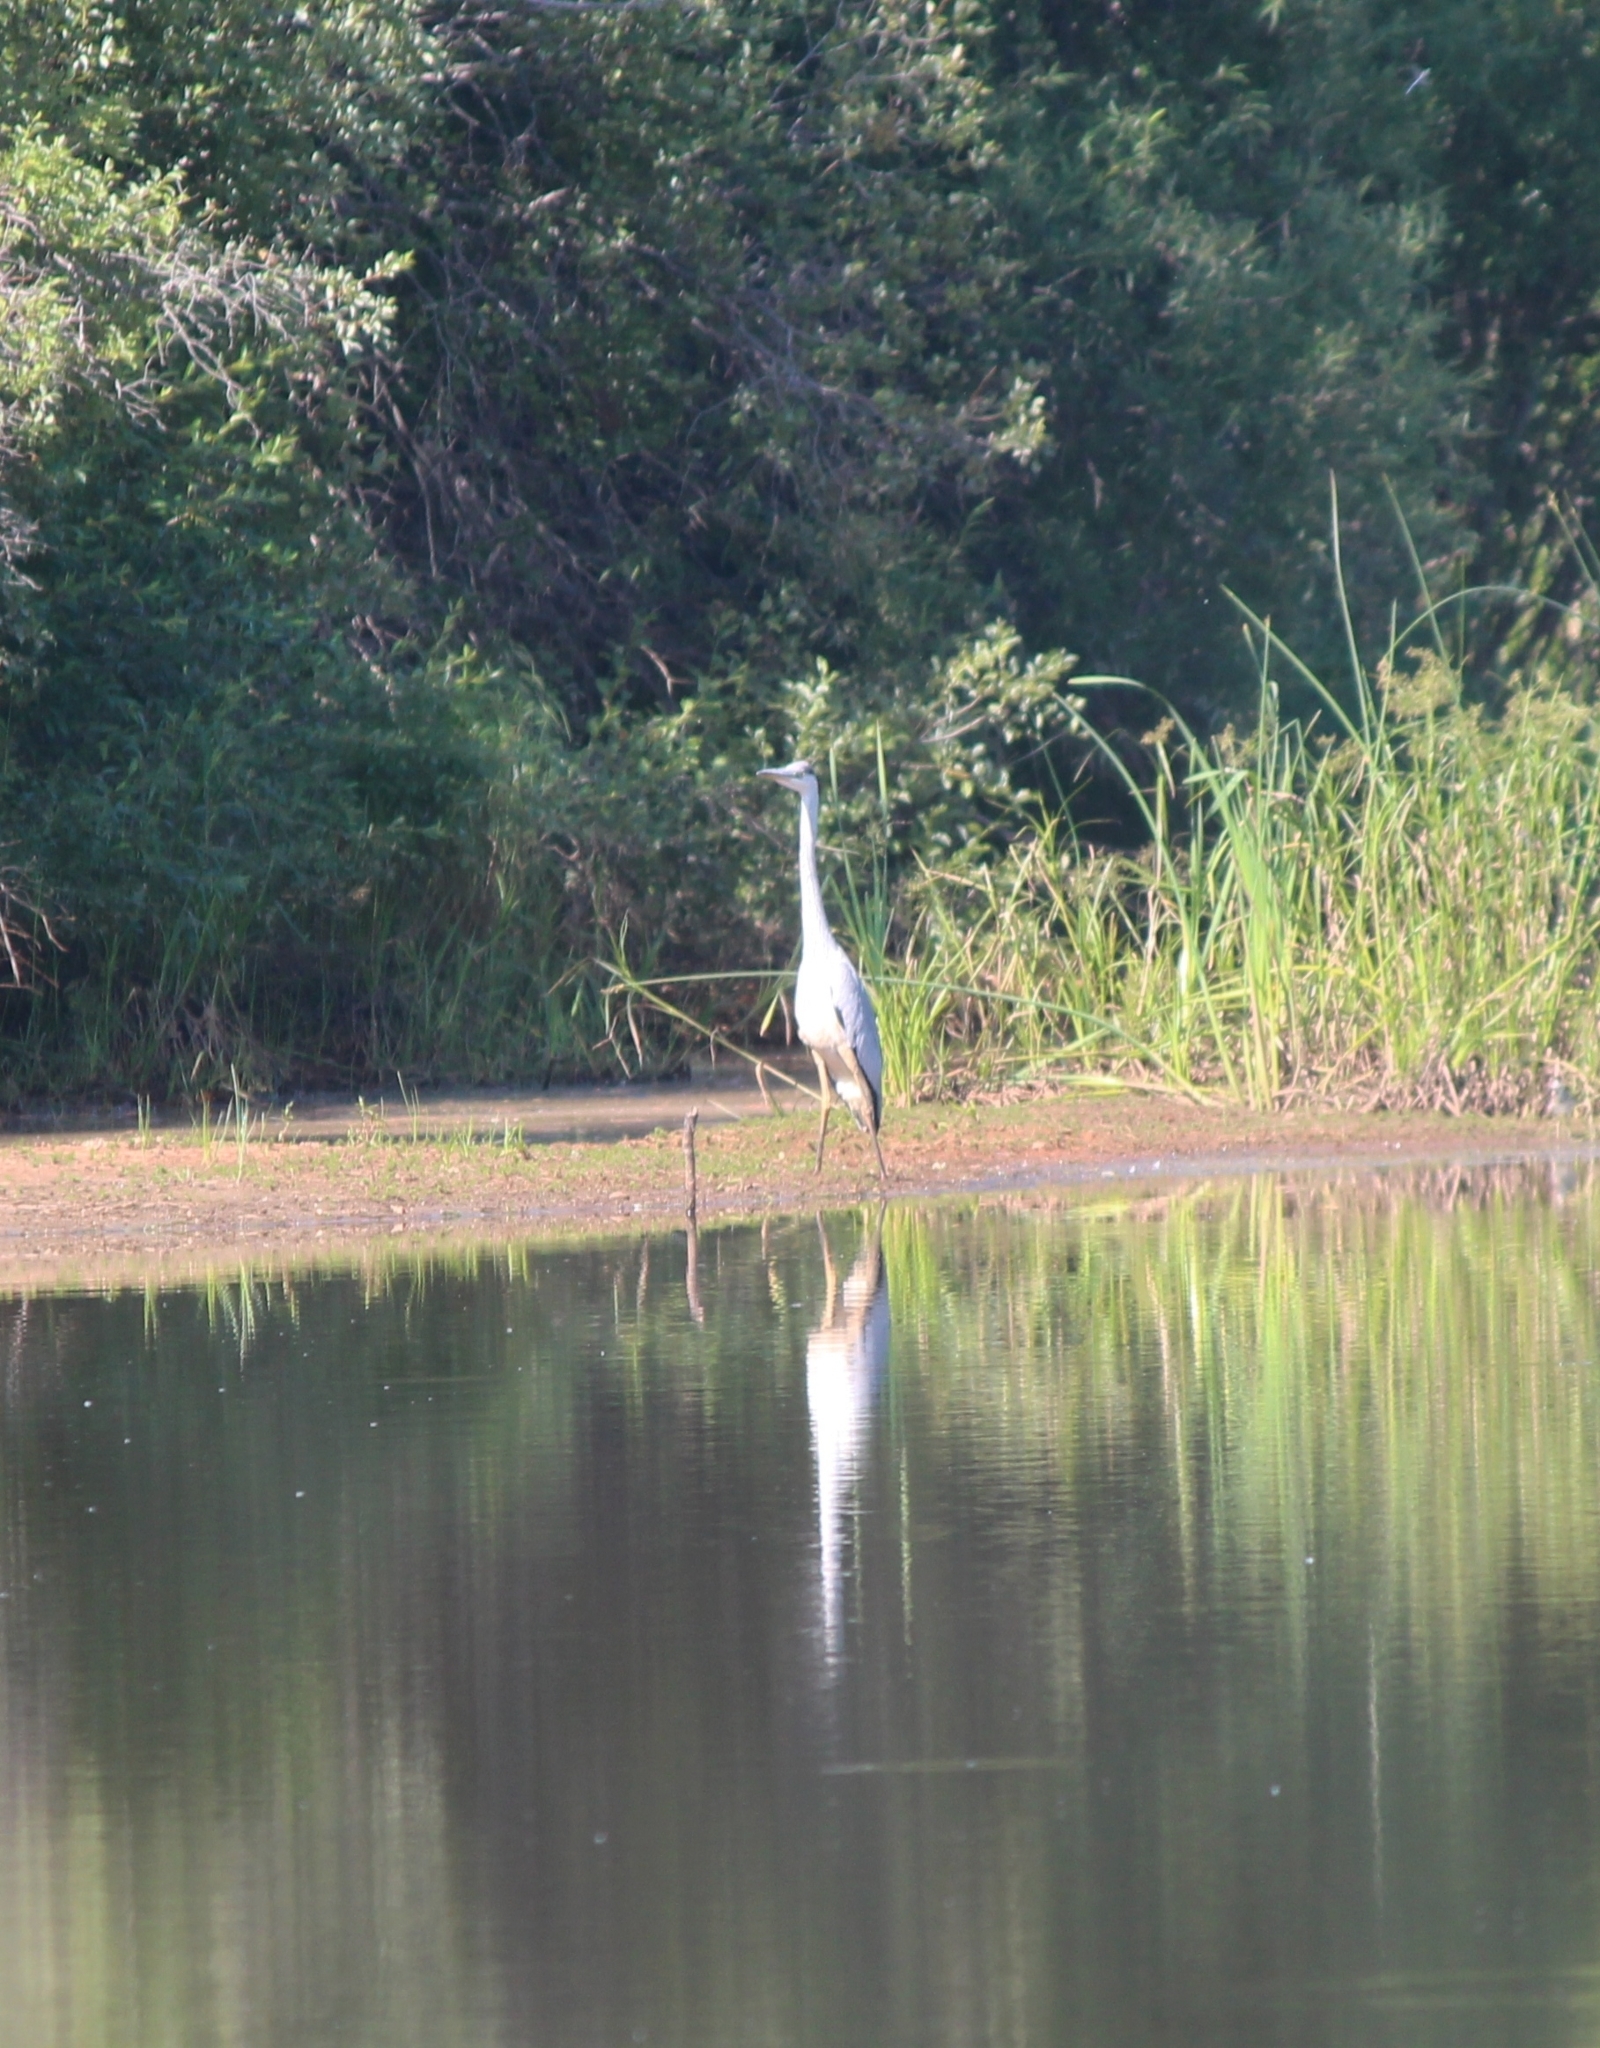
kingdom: Animalia
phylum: Chordata
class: Aves
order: Pelecaniformes
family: Ardeidae
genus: Ardea
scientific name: Ardea cinerea
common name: Grey heron
